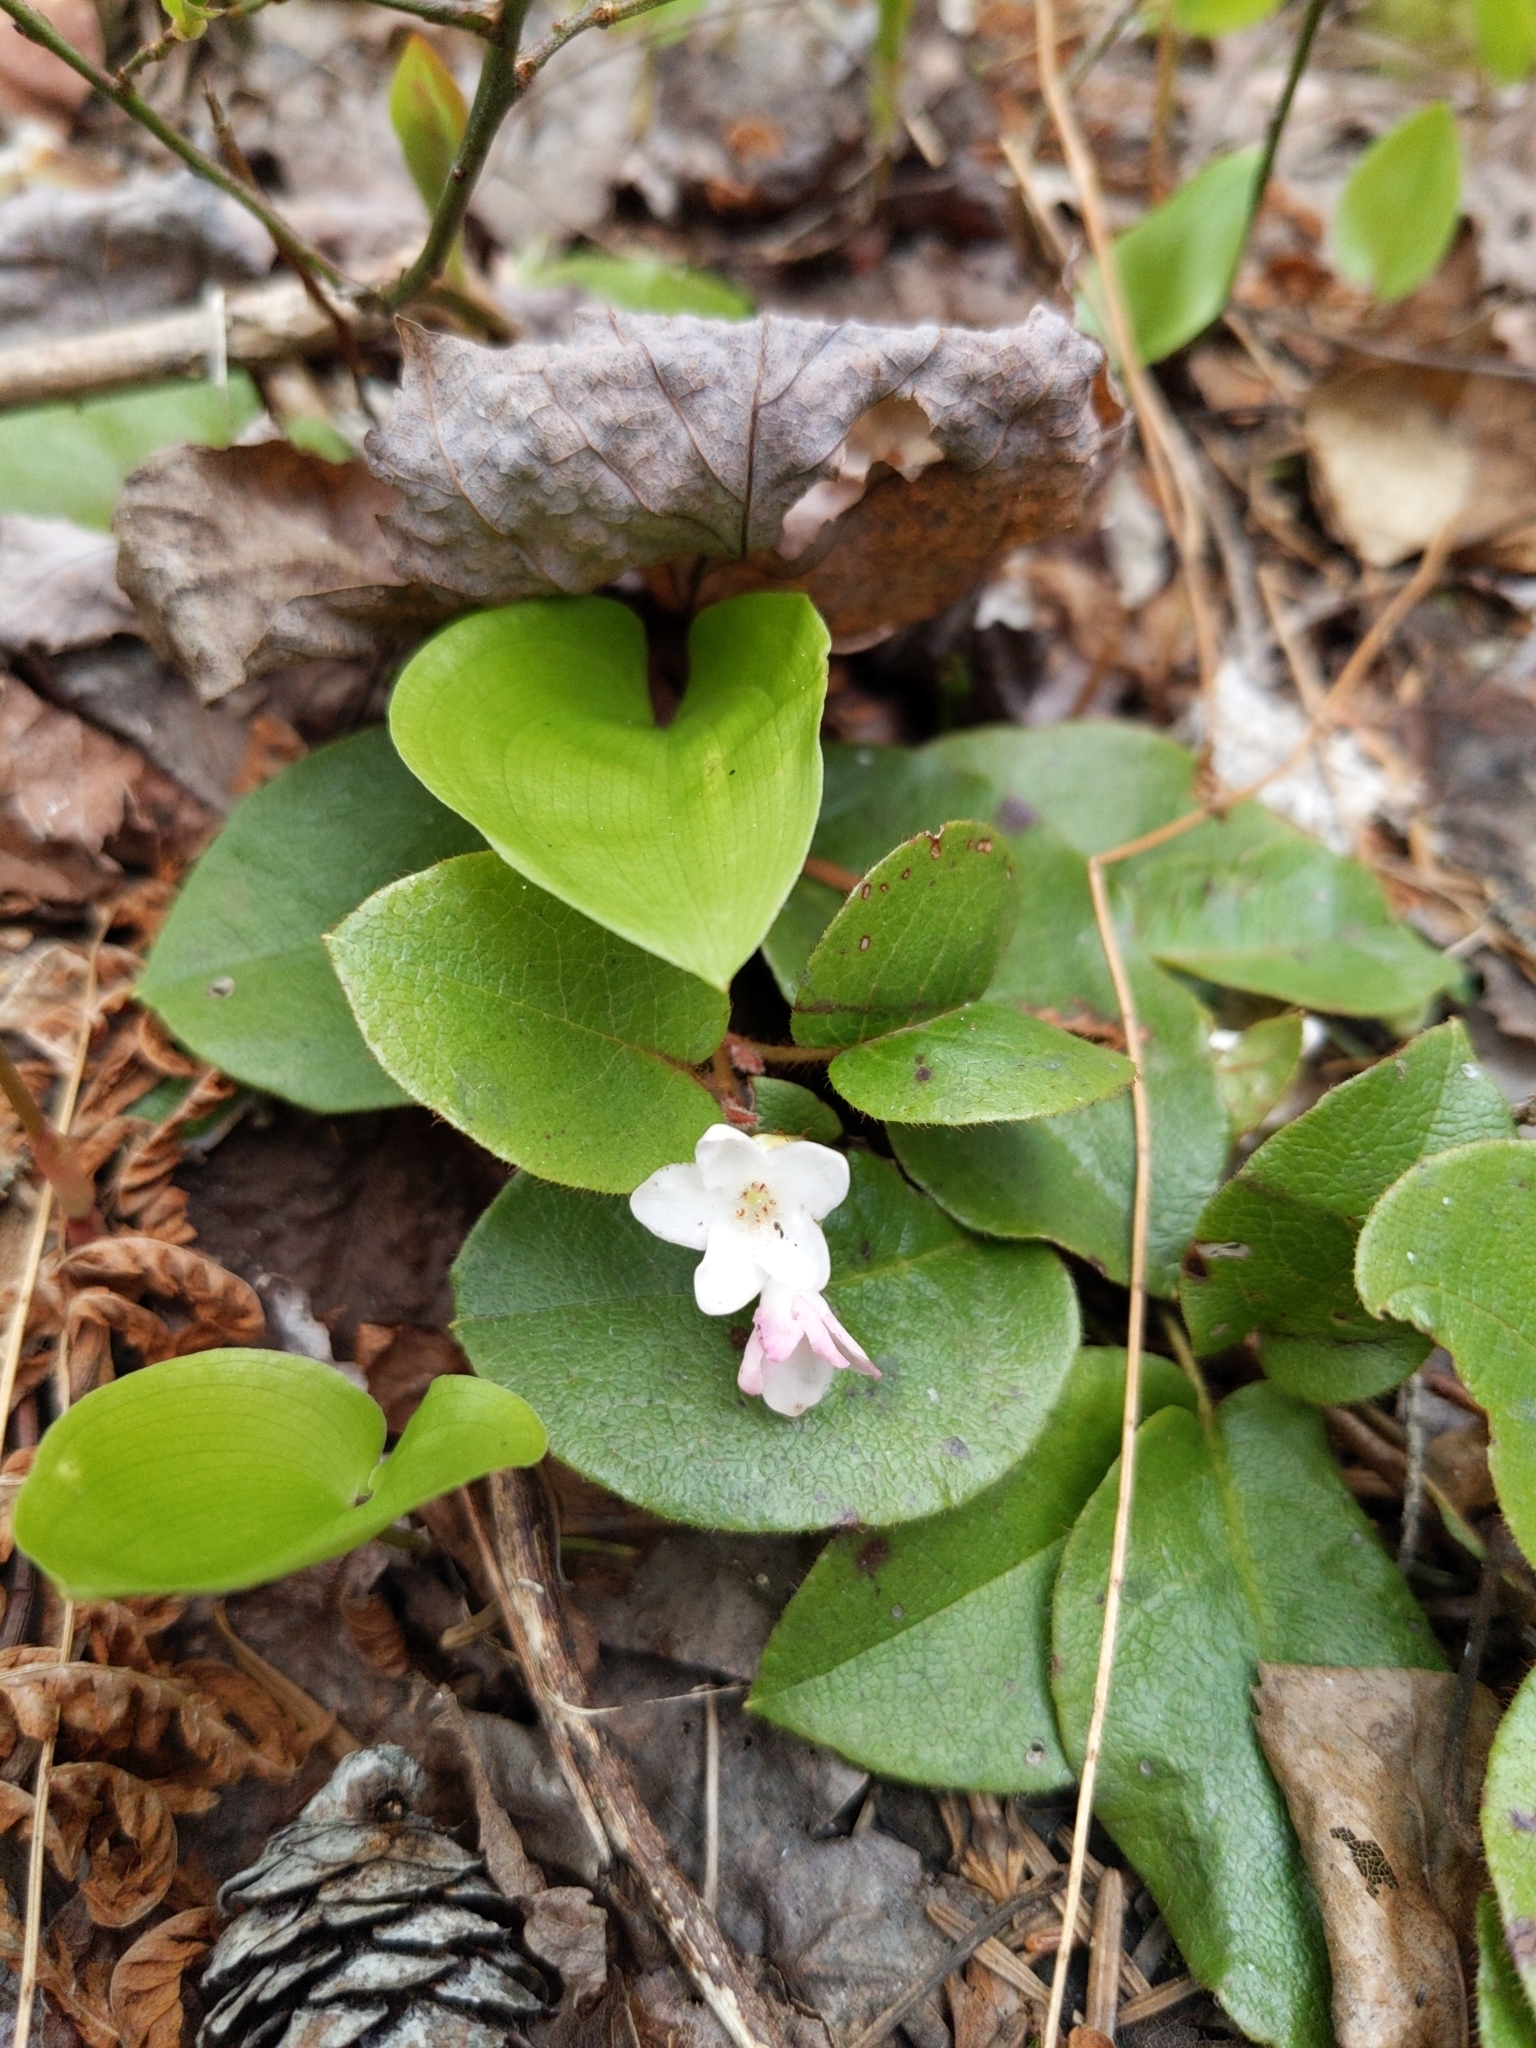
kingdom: Plantae
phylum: Tracheophyta
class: Magnoliopsida
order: Ericales
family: Ericaceae
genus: Epigaea
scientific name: Epigaea repens
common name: Gravelroot
